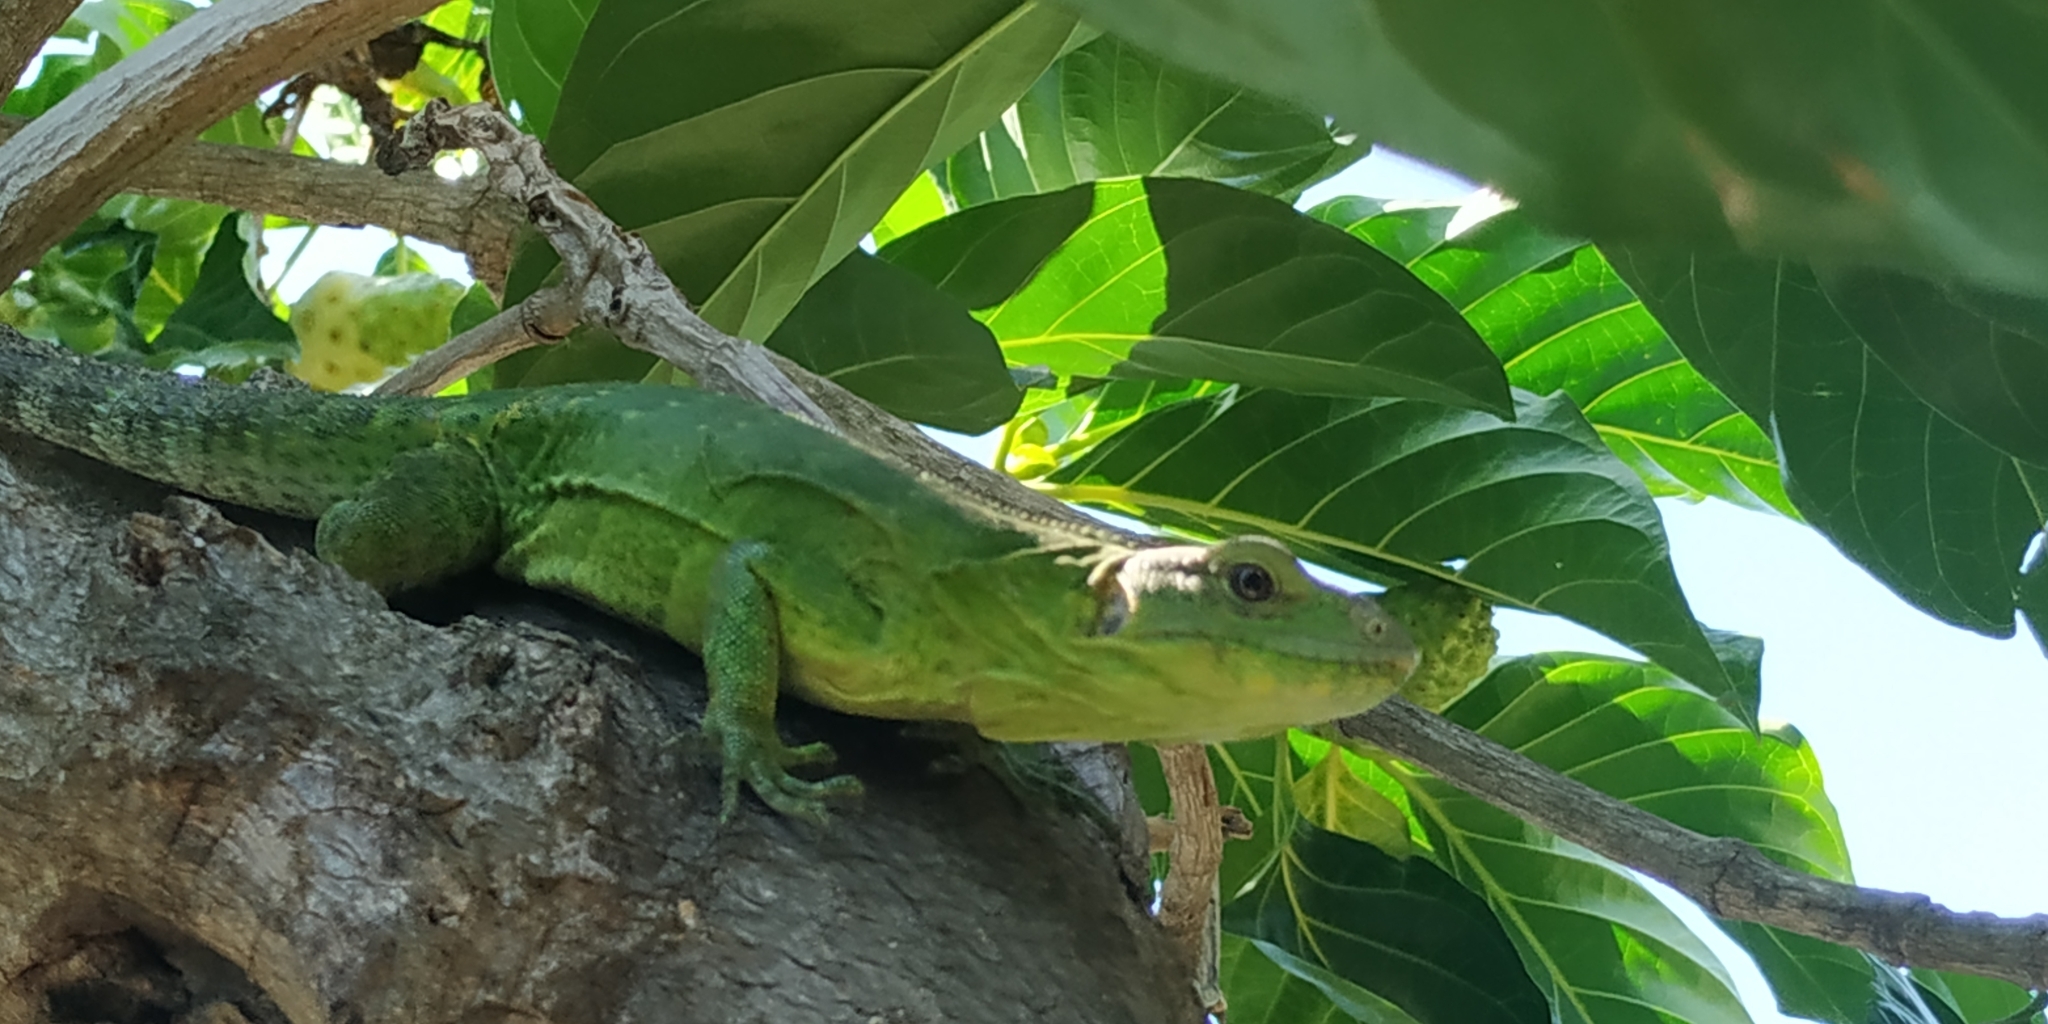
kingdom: Animalia
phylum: Chordata
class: Squamata
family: Iguanidae
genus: Ctenosaura
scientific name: Ctenosaura acanthura
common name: Northeastern spinytail iguana
